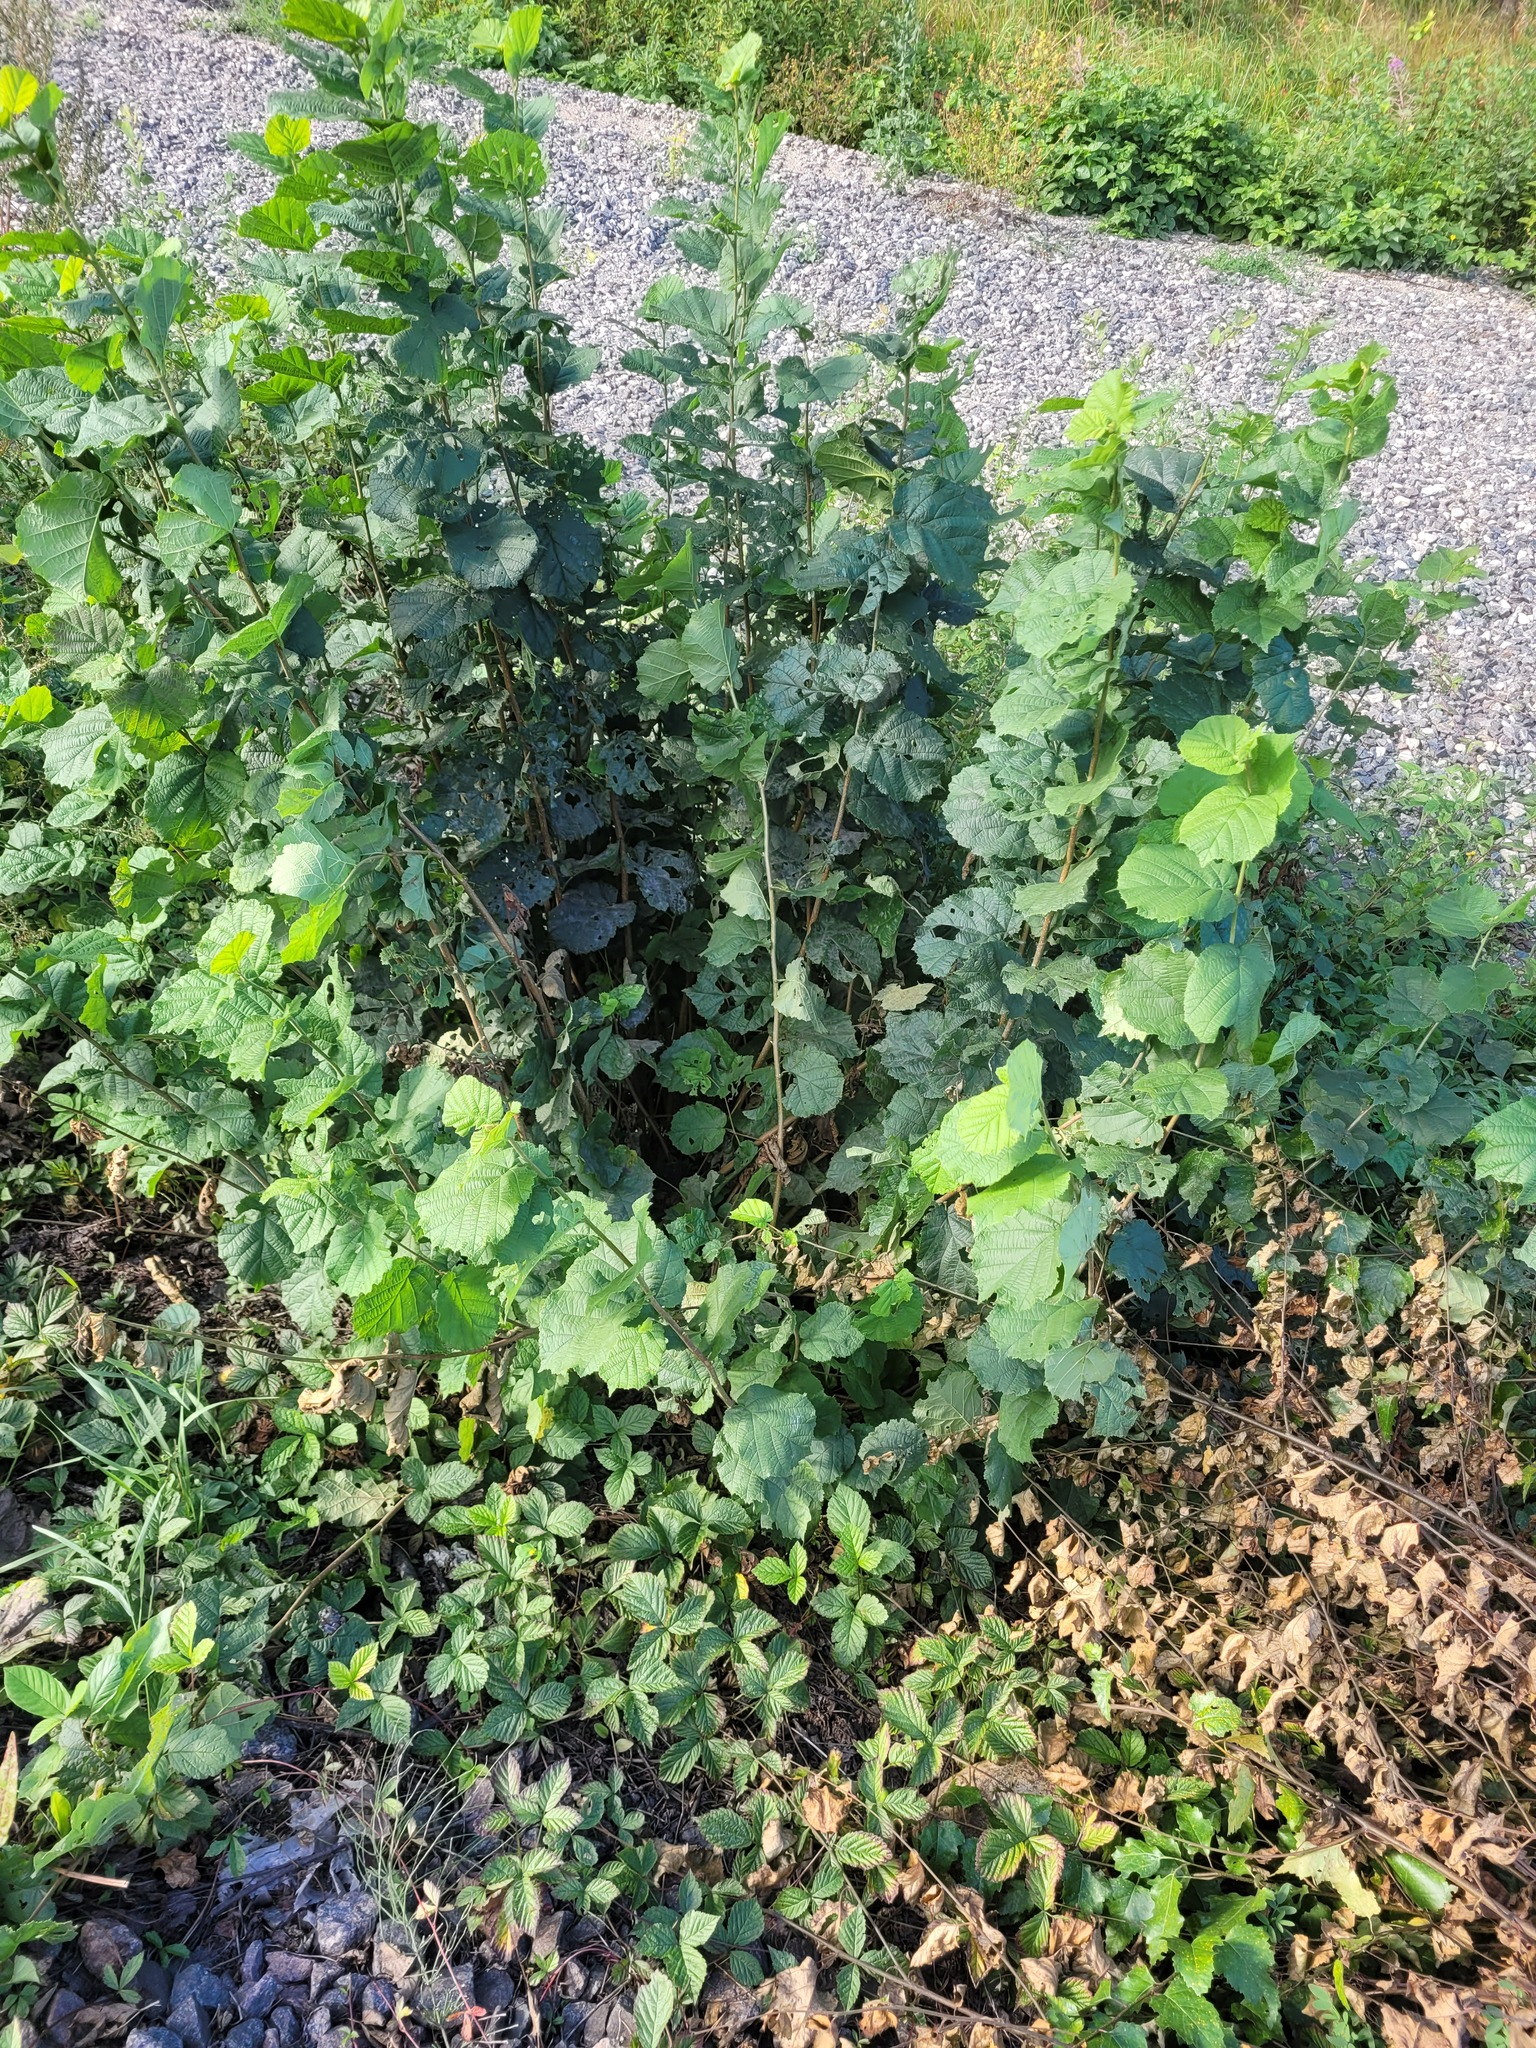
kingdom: Plantae
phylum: Tracheophyta
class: Magnoliopsida
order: Fagales
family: Betulaceae
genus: Corylus
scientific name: Corylus avellana
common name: European hazel
